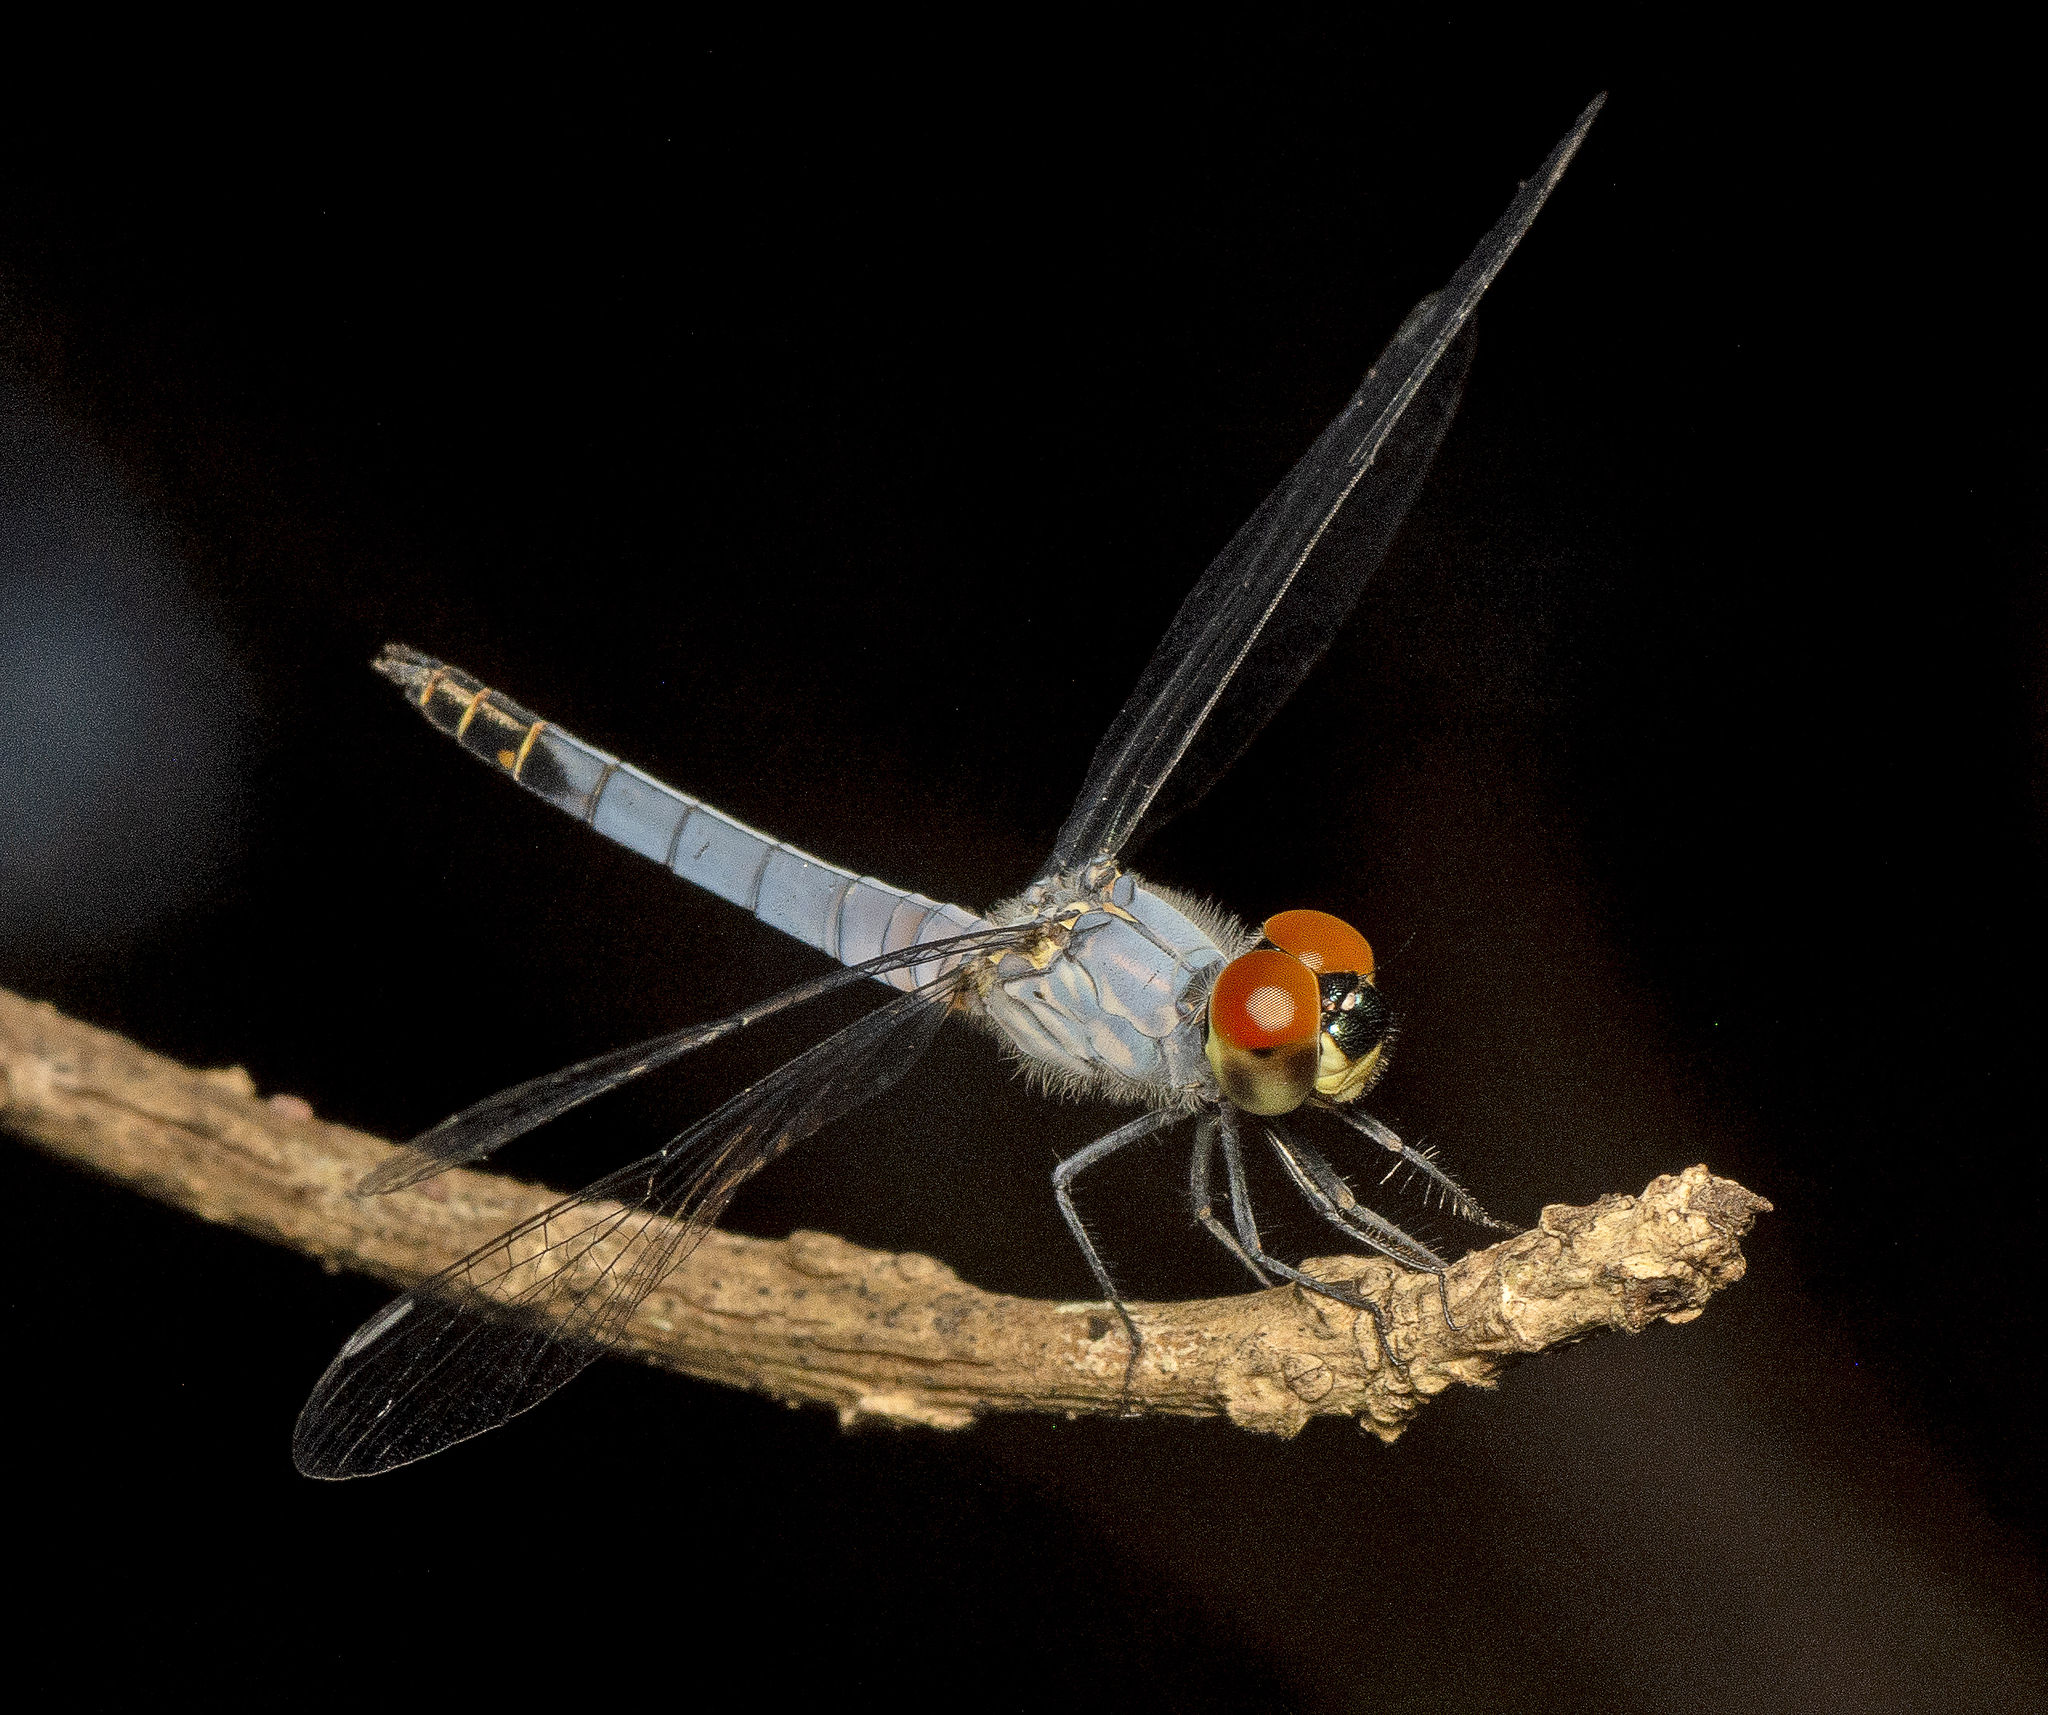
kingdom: Animalia
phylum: Arthropoda
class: Insecta
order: Odonata
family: Libellulidae
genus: Brachydiplax
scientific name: Brachydiplax denticauda
